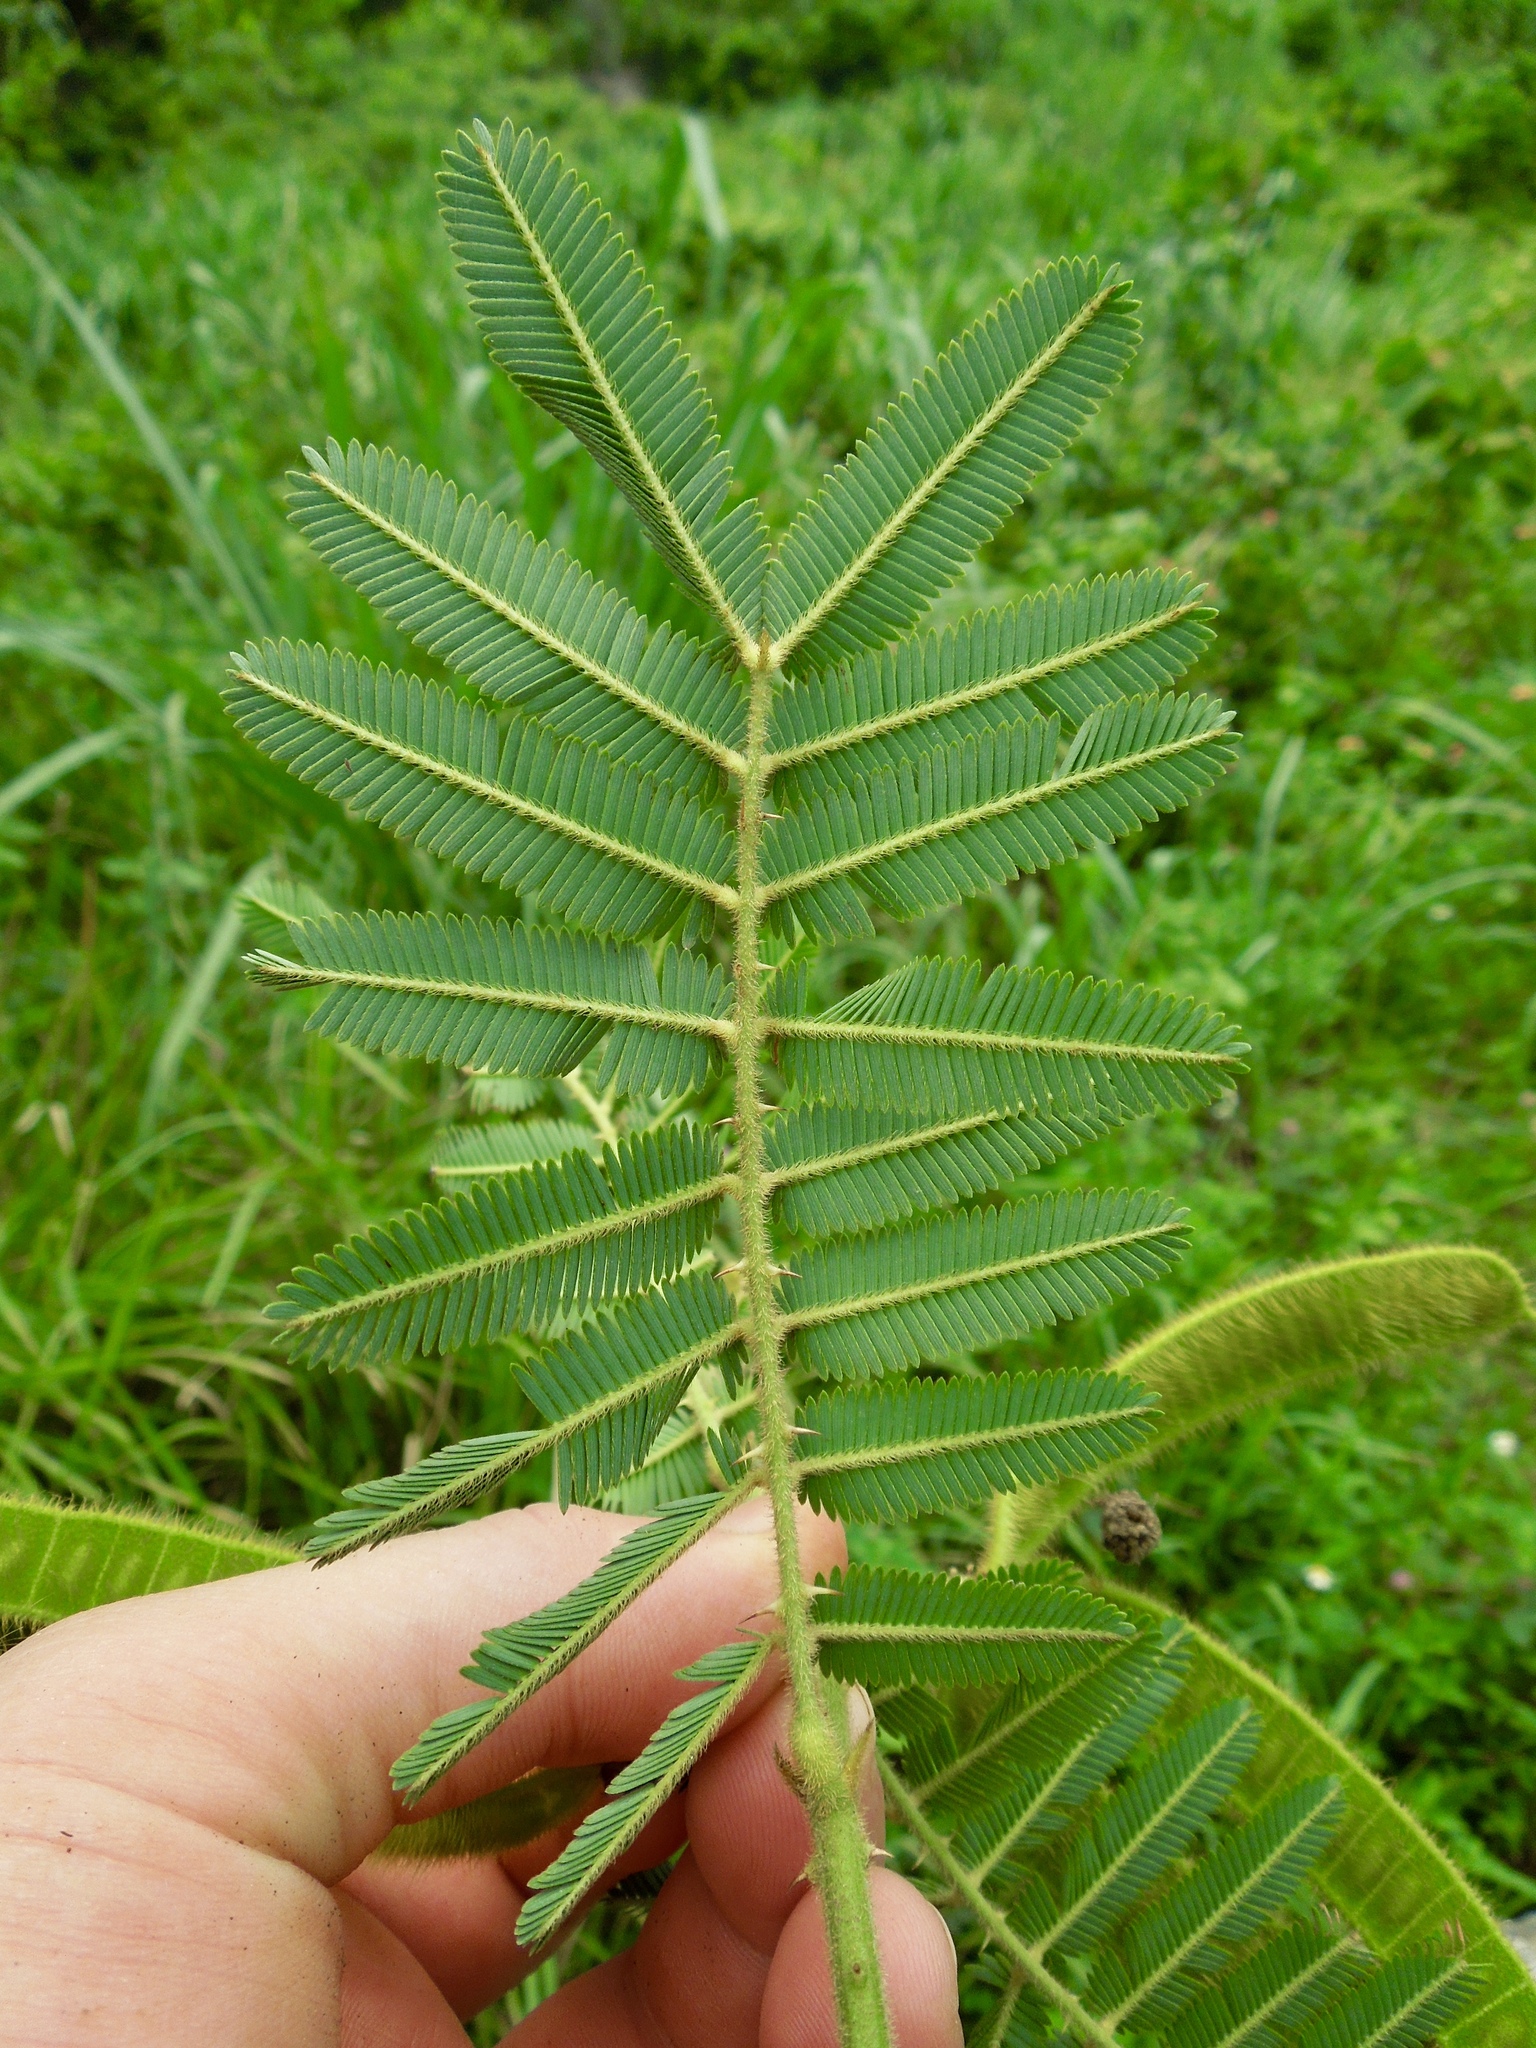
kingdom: Plantae
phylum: Tracheophyta
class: Magnoliopsida
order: Fabales
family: Fabaceae
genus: Mimosa
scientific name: Mimosa pigra
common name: Black mimosa
